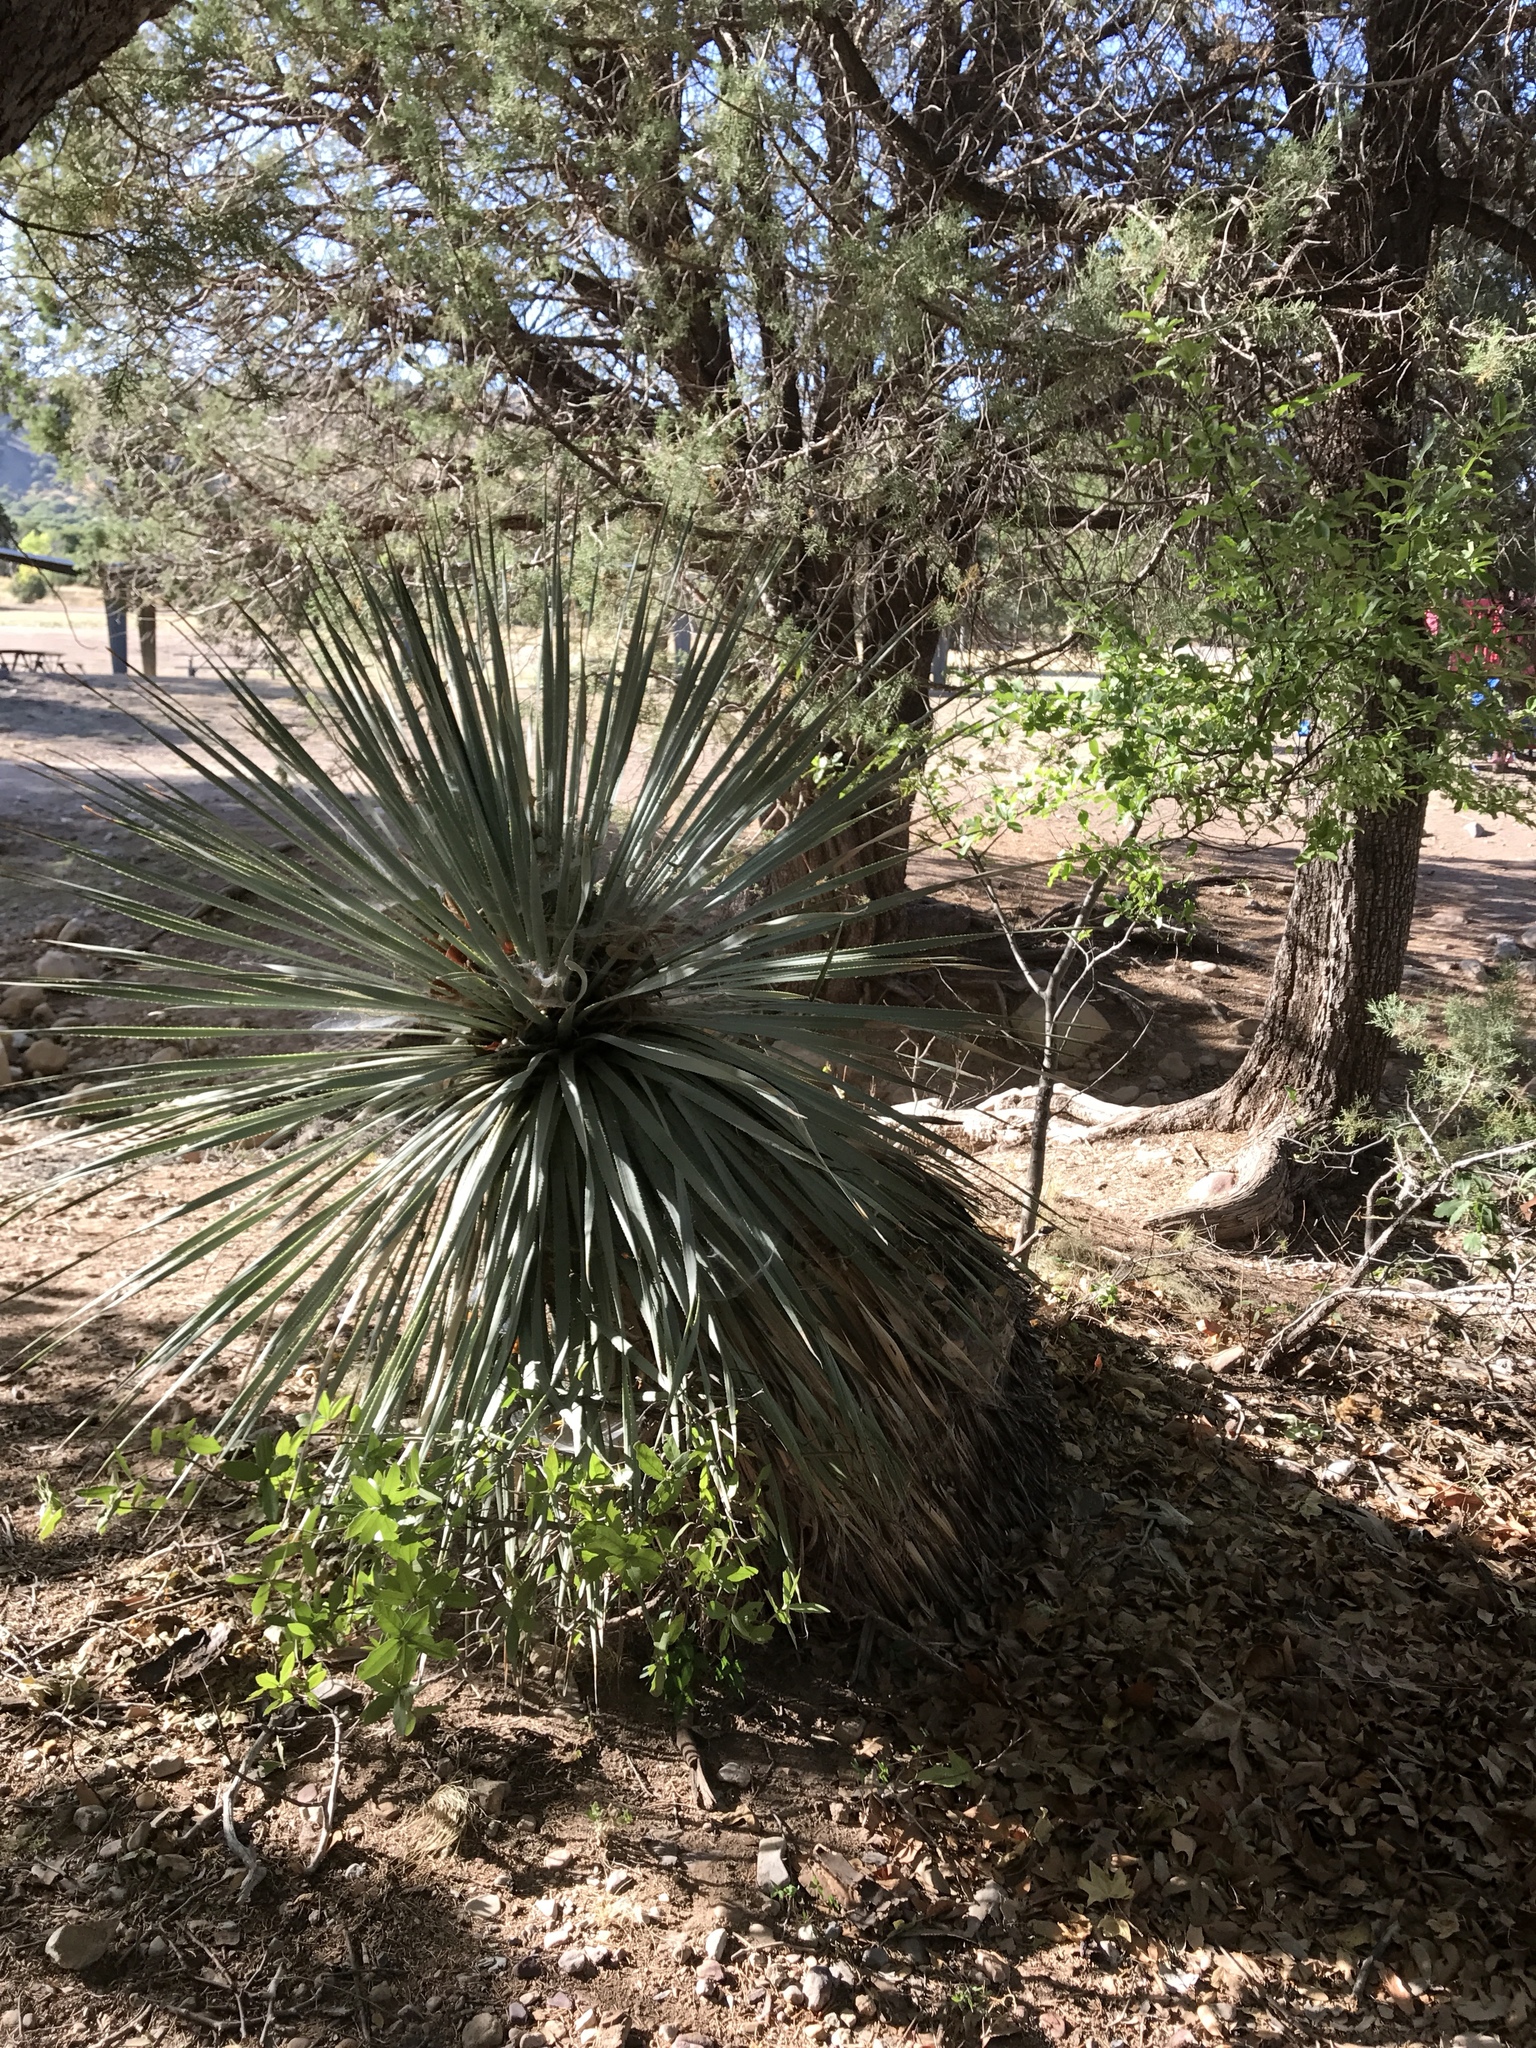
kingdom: Plantae
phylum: Tracheophyta
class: Liliopsida
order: Asparagales
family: Asparagaceae
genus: Dasylirion
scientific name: Dasylirion wheeleri
